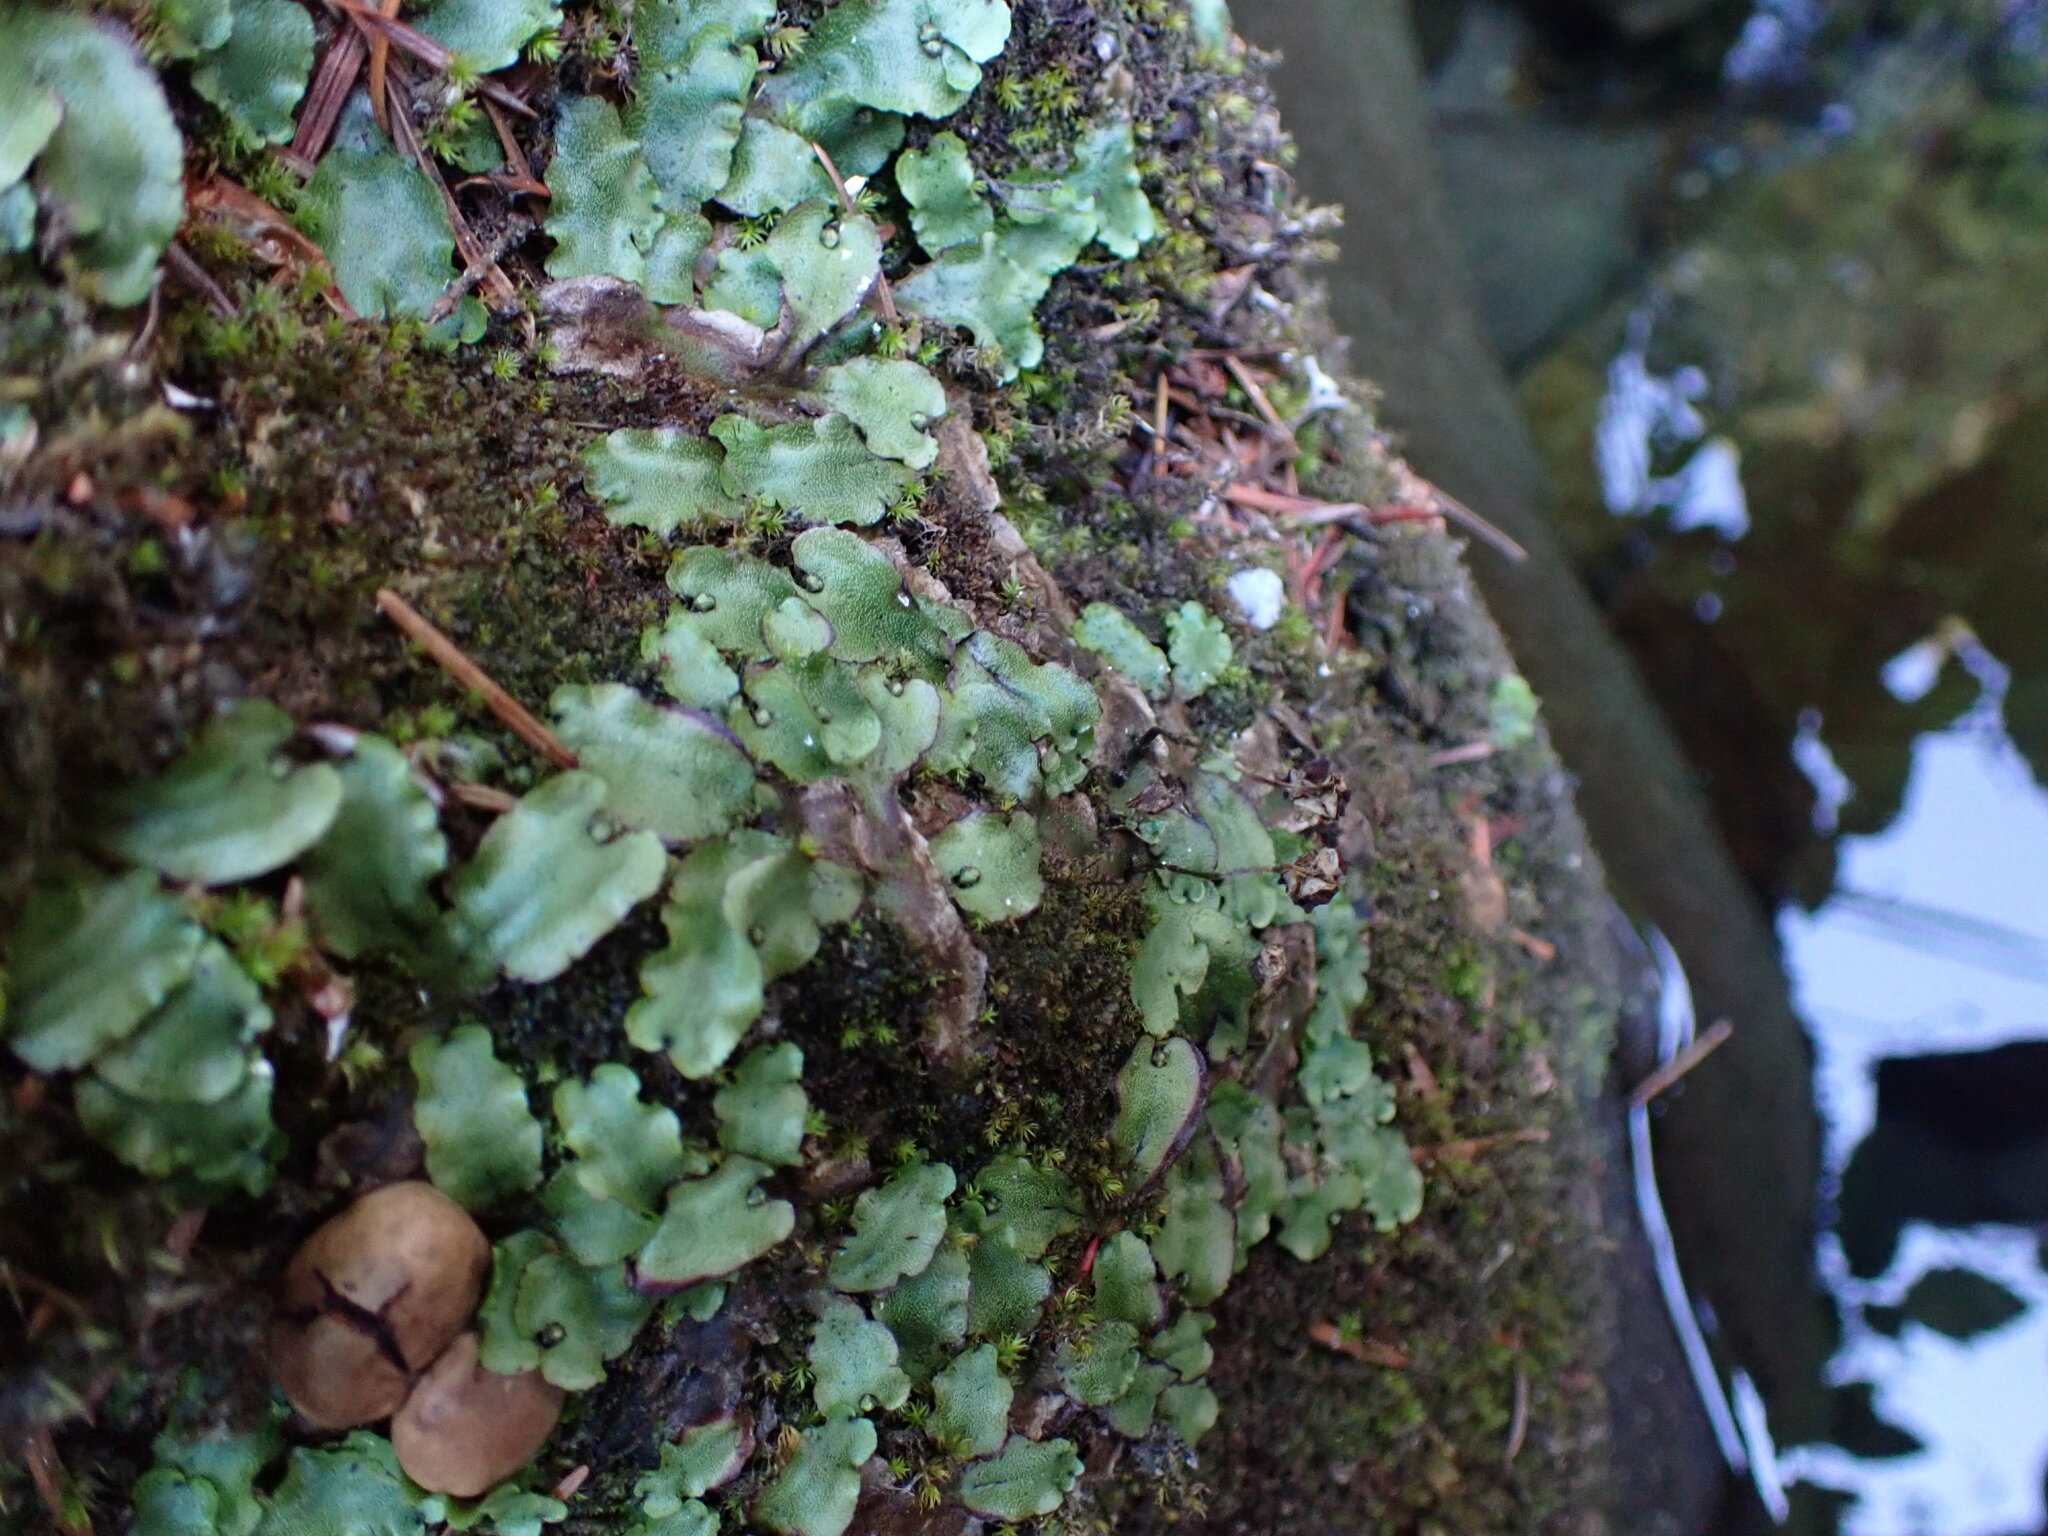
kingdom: Plantae
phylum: Marchantiophyta
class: Marchantiopsida
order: Marchantiales
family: Marchantiaceae
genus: Marchantia
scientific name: Marchantia quadrata
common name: Narrow mushroom-headed liverwort
